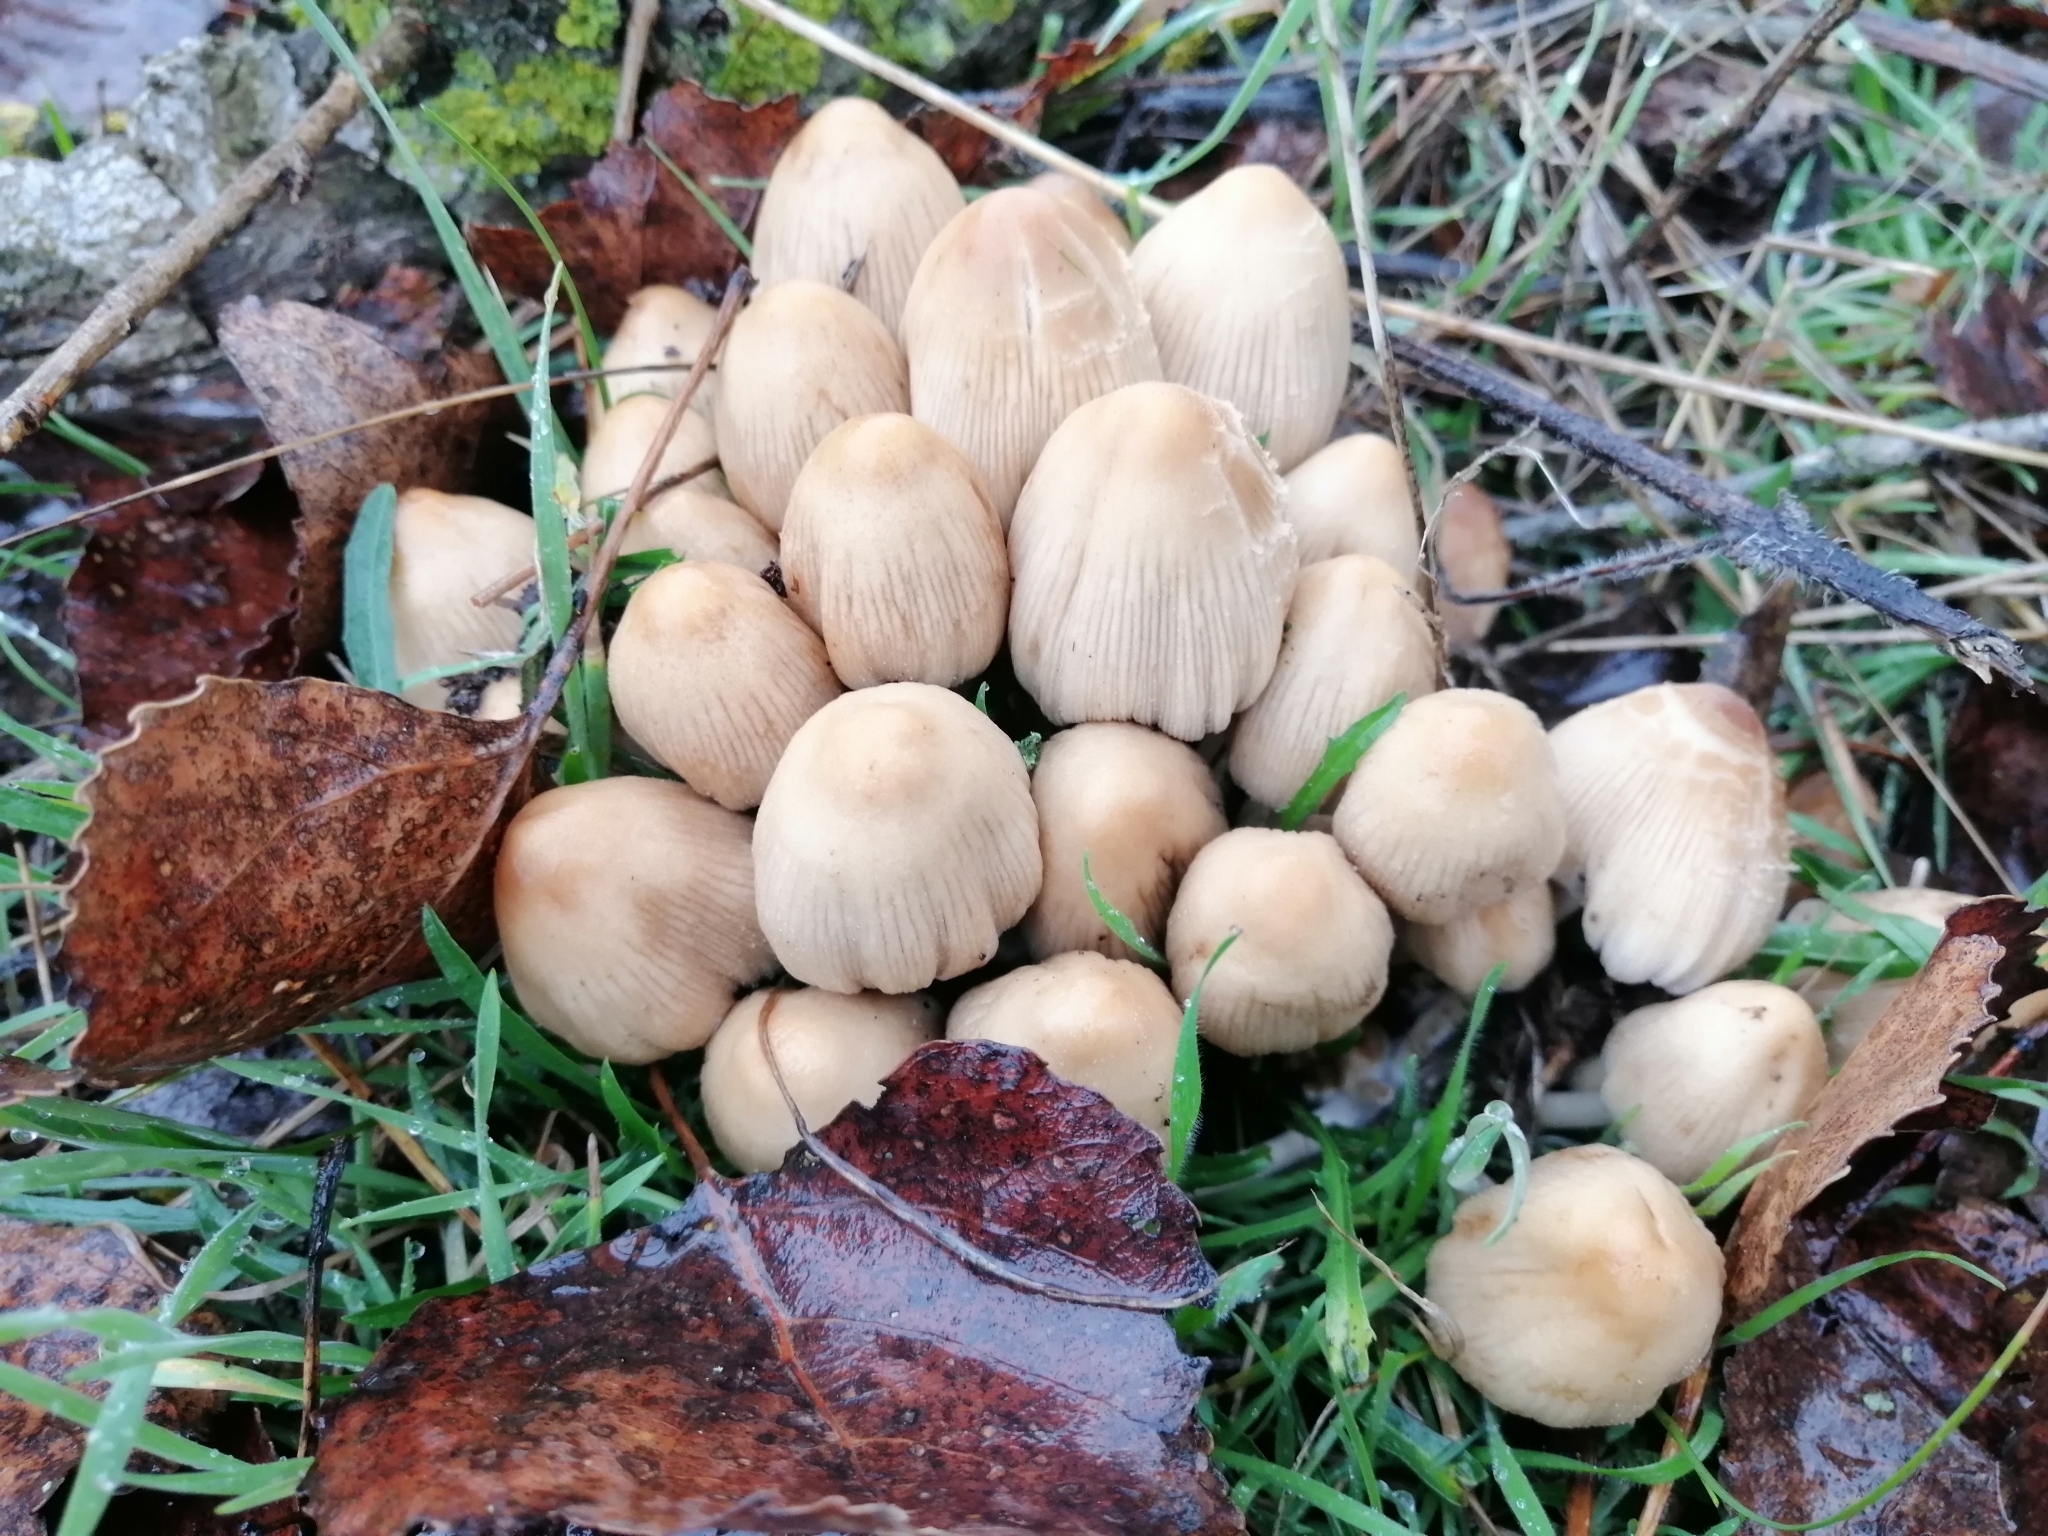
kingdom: Fungi
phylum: Basidiomycota
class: Agaricomycetes
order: Agaricales
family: Psathyrellaceae
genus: Coprinellus
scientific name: Coprinellus micaceus
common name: Glistening ink-cap
